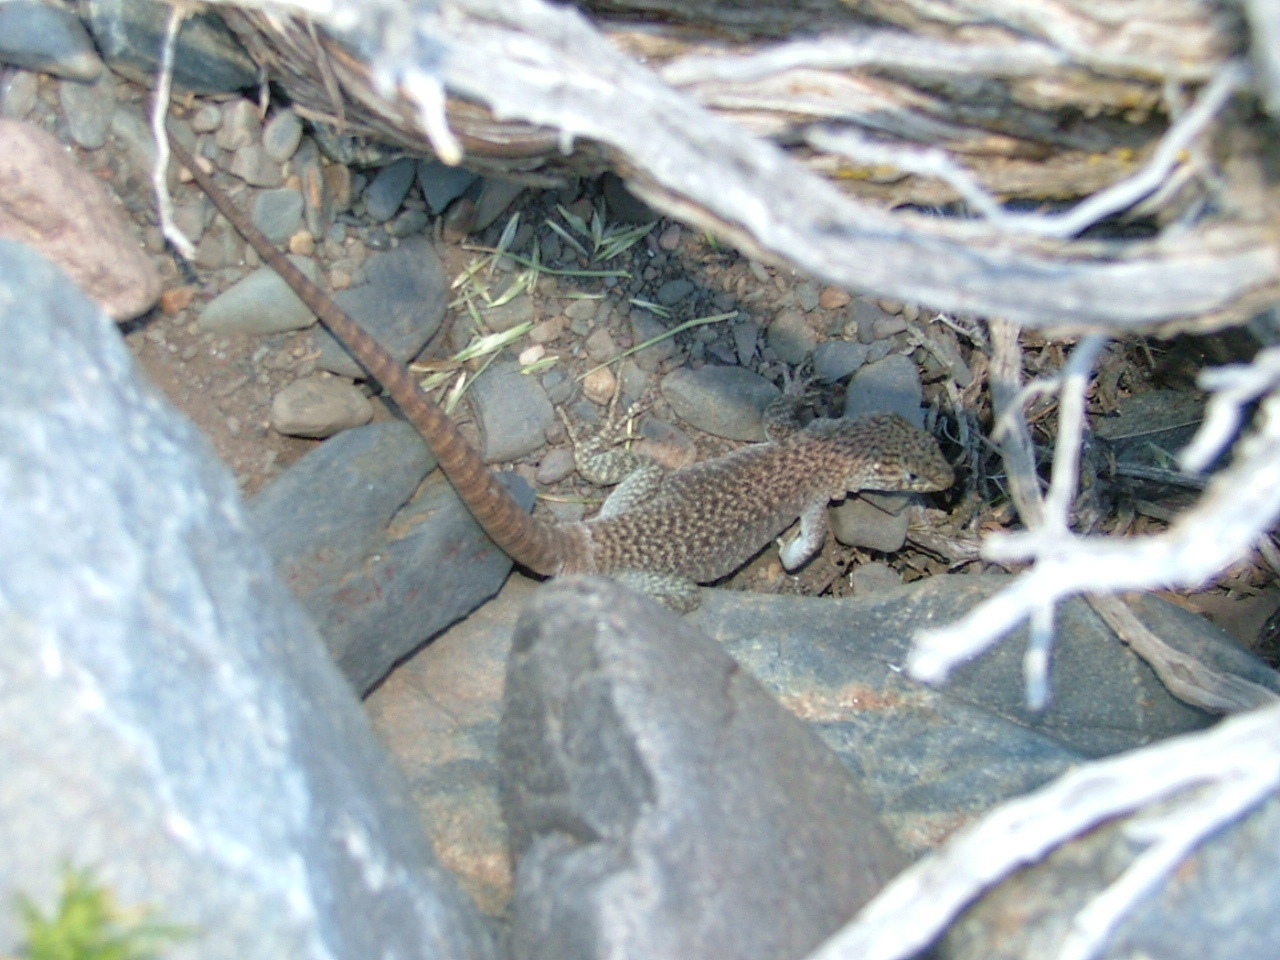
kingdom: Animalia
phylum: Chordata
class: Squamata
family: Liolaemidae
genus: Liolaemus
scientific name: Liolaemus austromendocinus
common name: Austromendocino tree iguana
